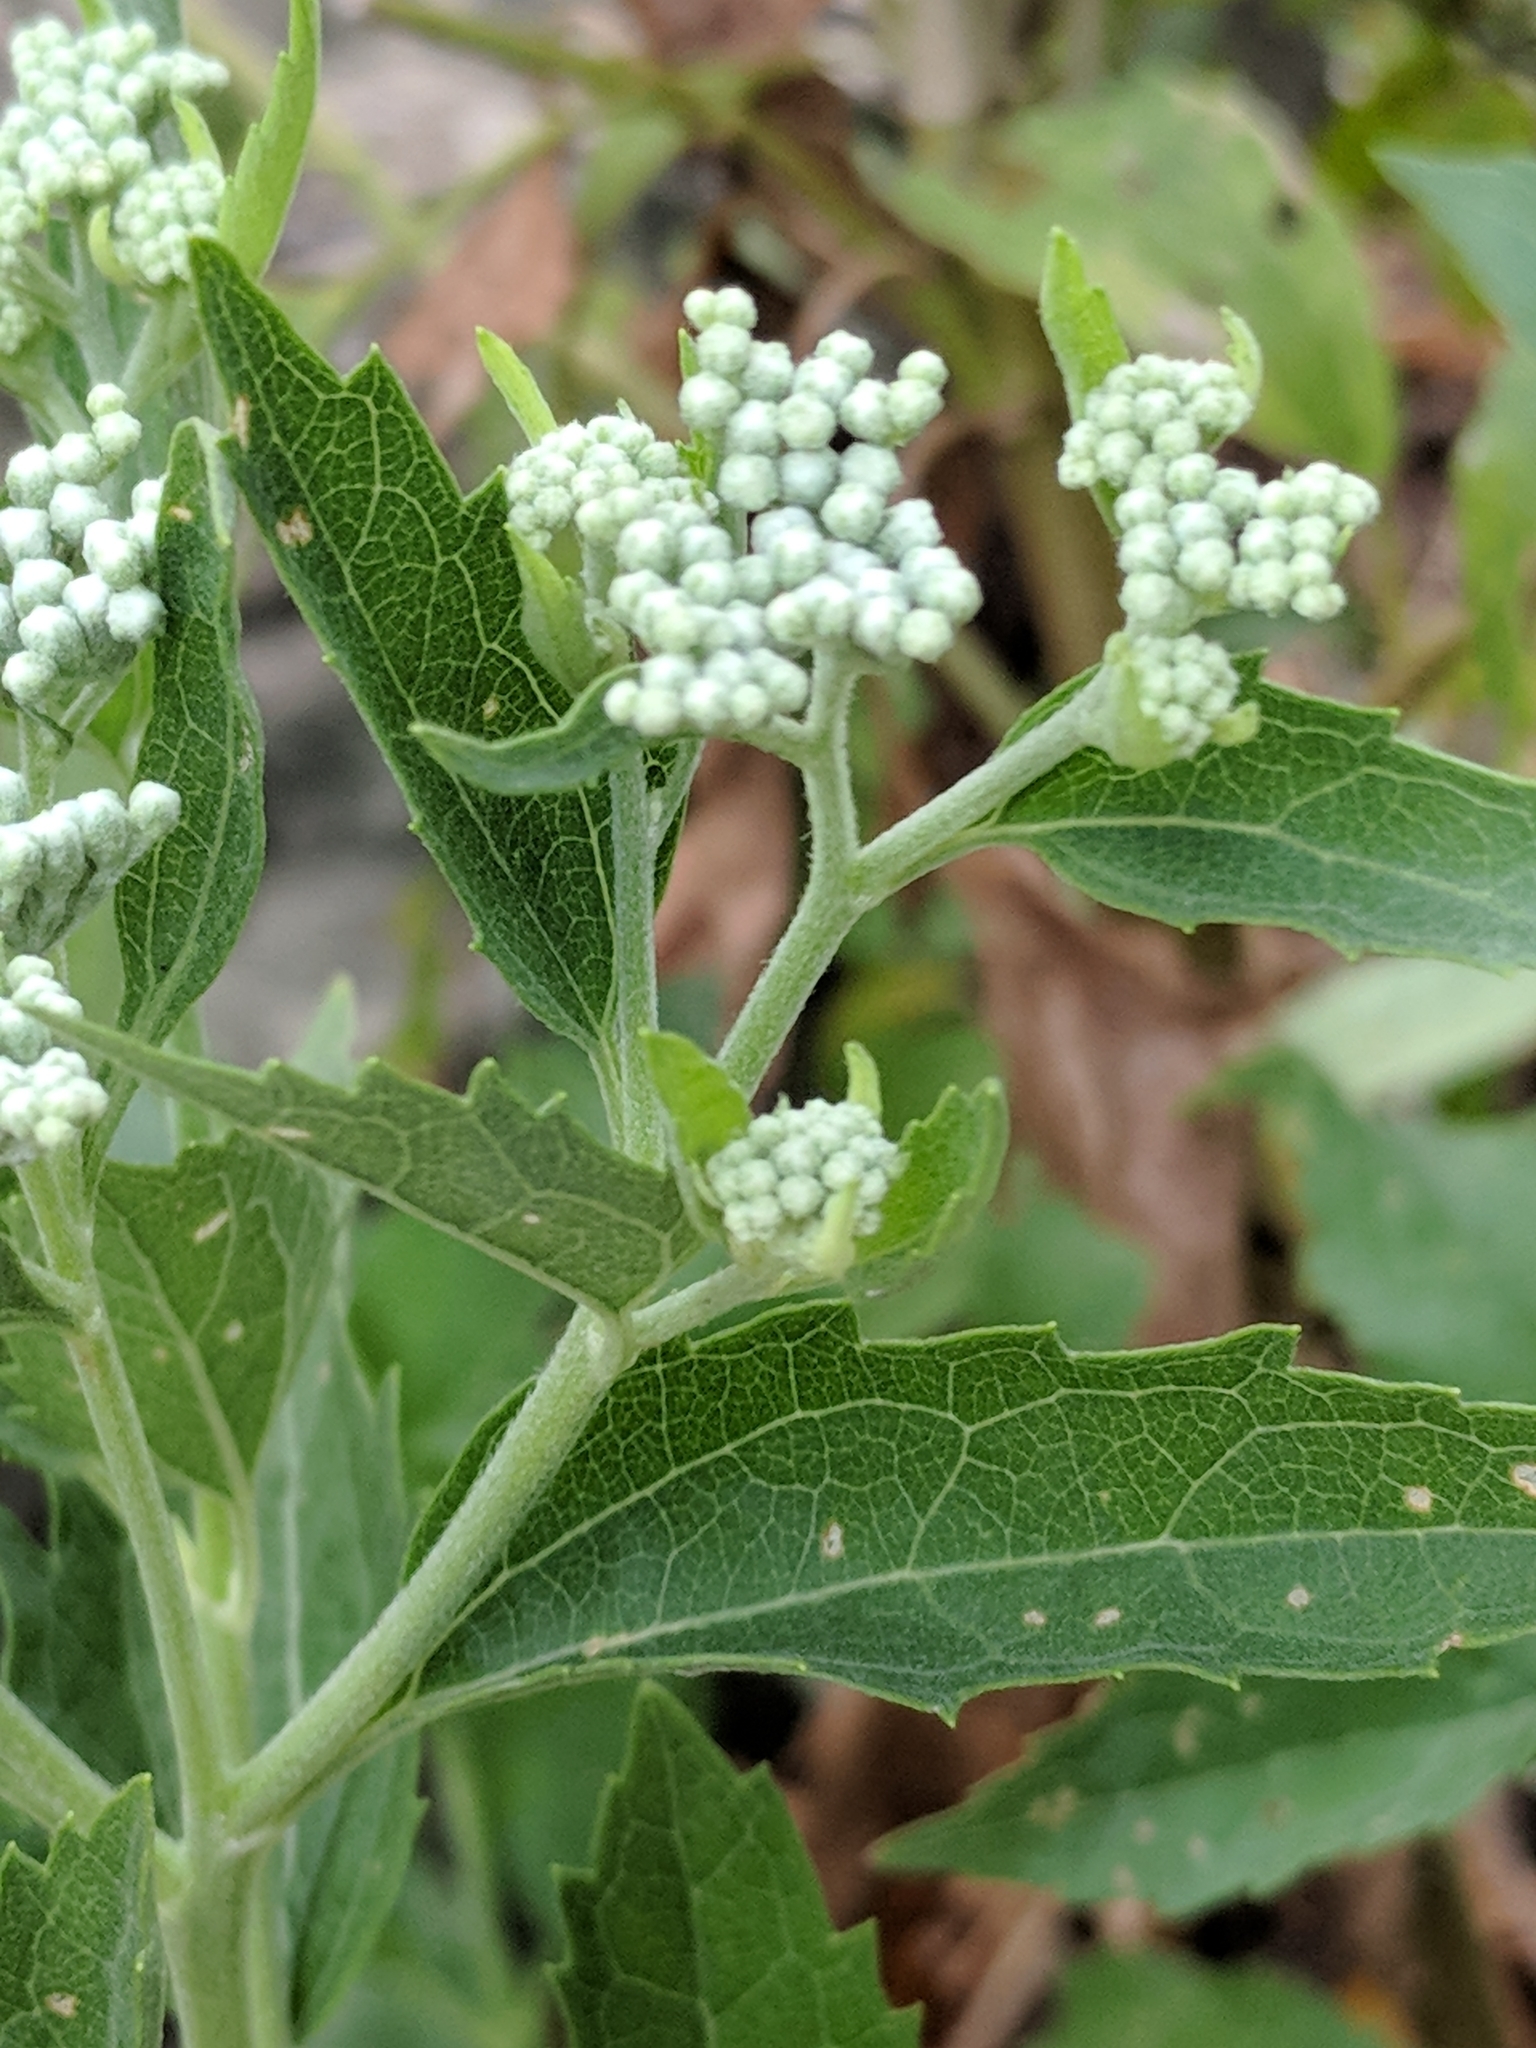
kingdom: Plantae
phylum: Tracheophyta
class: Magnoliopsida
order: Asterales
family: Asteraceae
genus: Eupatorium
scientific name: Eupatorium serotinum
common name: Late boneset
